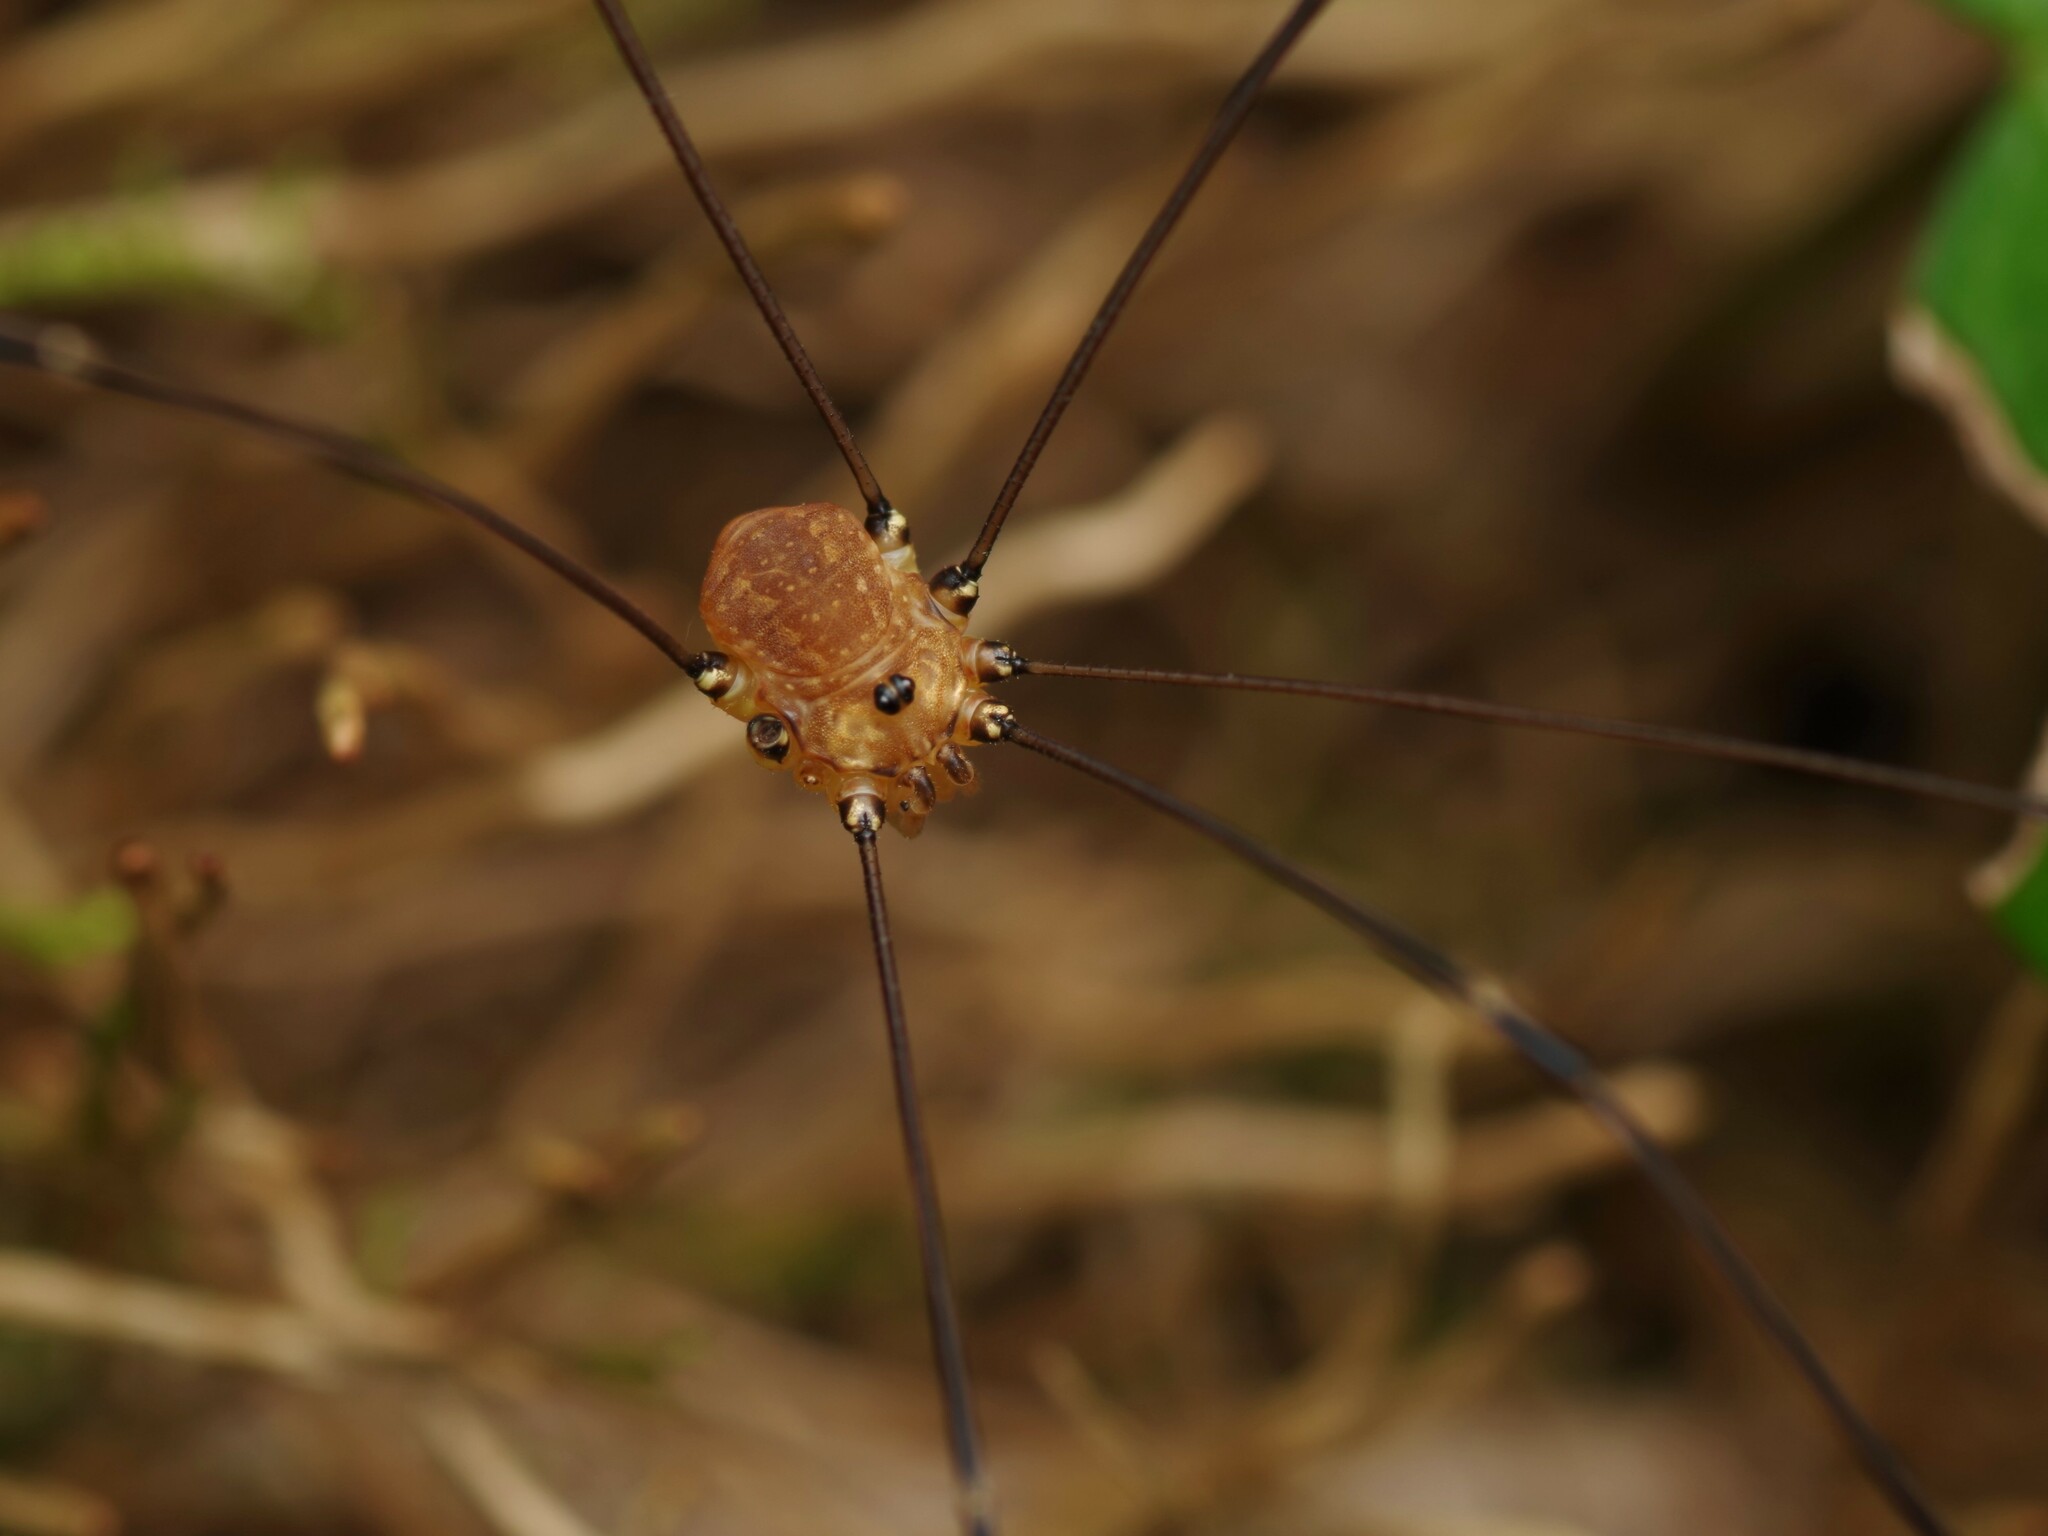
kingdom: Animalia
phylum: Arthropoda
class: Arachnida
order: Opiliones
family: Sclerosomatidae
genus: Leiobunum
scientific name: Leiobunum rotundum
